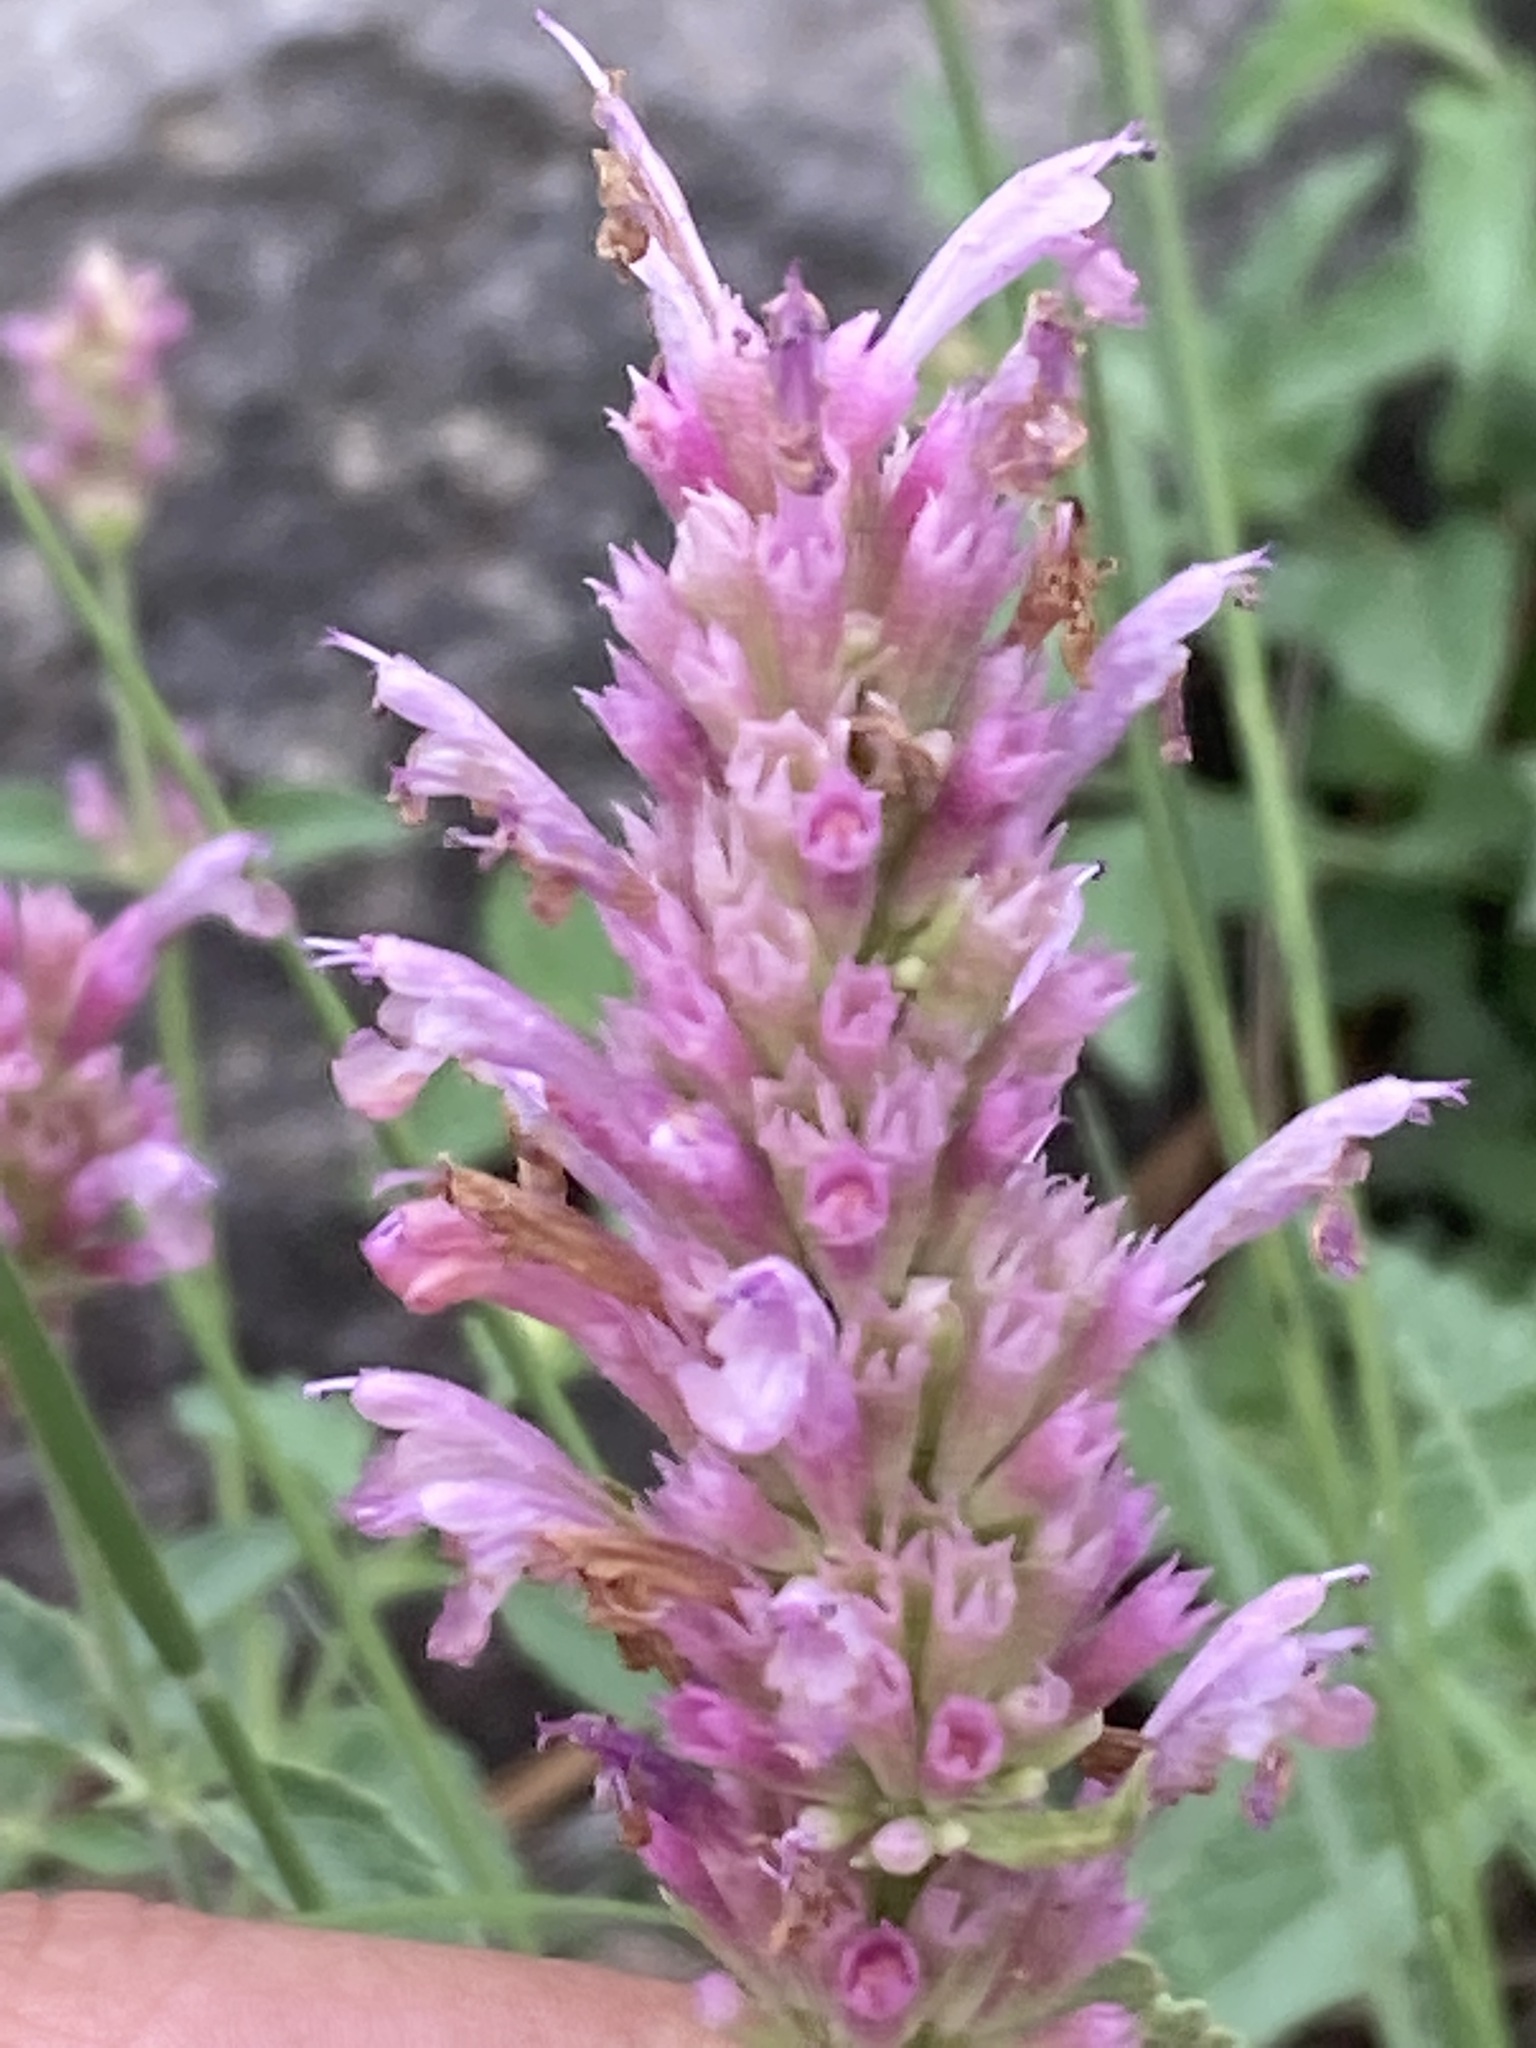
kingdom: Plantae
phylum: Tracheophyta
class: Magnoliopsida
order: Lamiales
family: Lamiaceae
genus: Agastache
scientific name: Agastache pallidiflora
